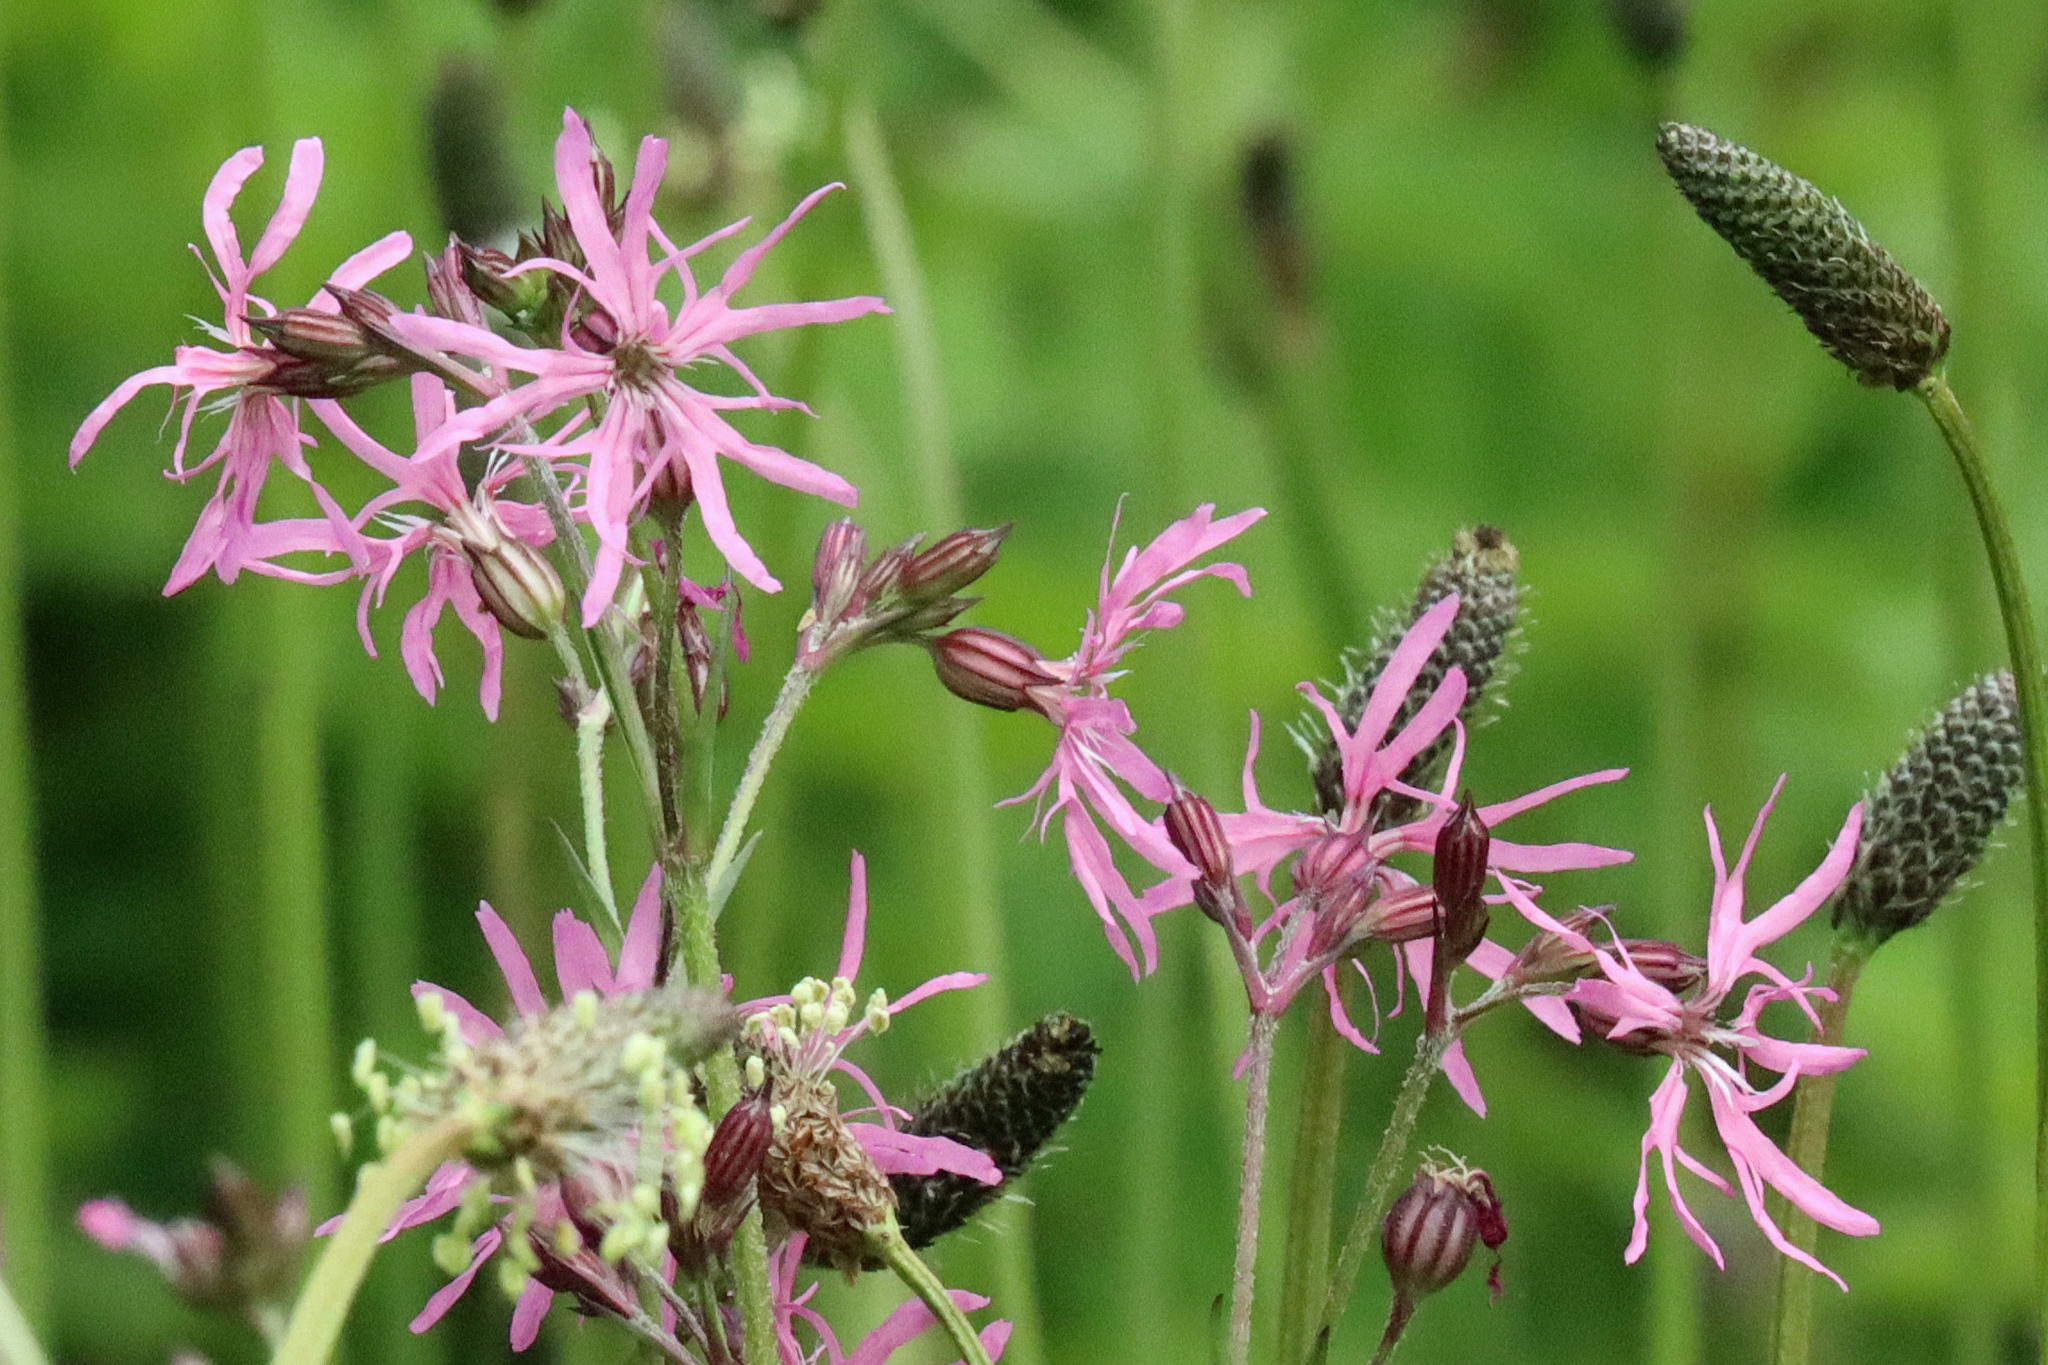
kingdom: Plantae
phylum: Tracheophyta
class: Magnoliopsida
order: Caryophyllales
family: Caryophyllaceae
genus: Silene
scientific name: Silene flos-cuculi
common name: Ragged-robin
